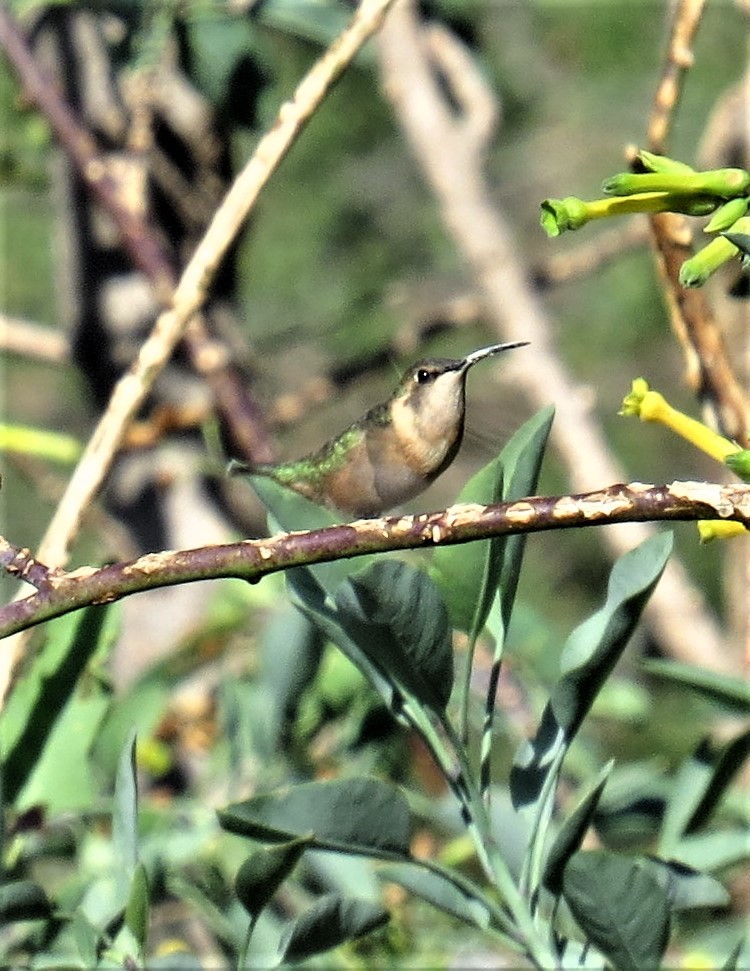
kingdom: Animalia
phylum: Chordata
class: Aves
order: Apodiformes
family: Trochilidae
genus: Calothorax
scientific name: Calothorax lucifer
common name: Lucifer sheartail
